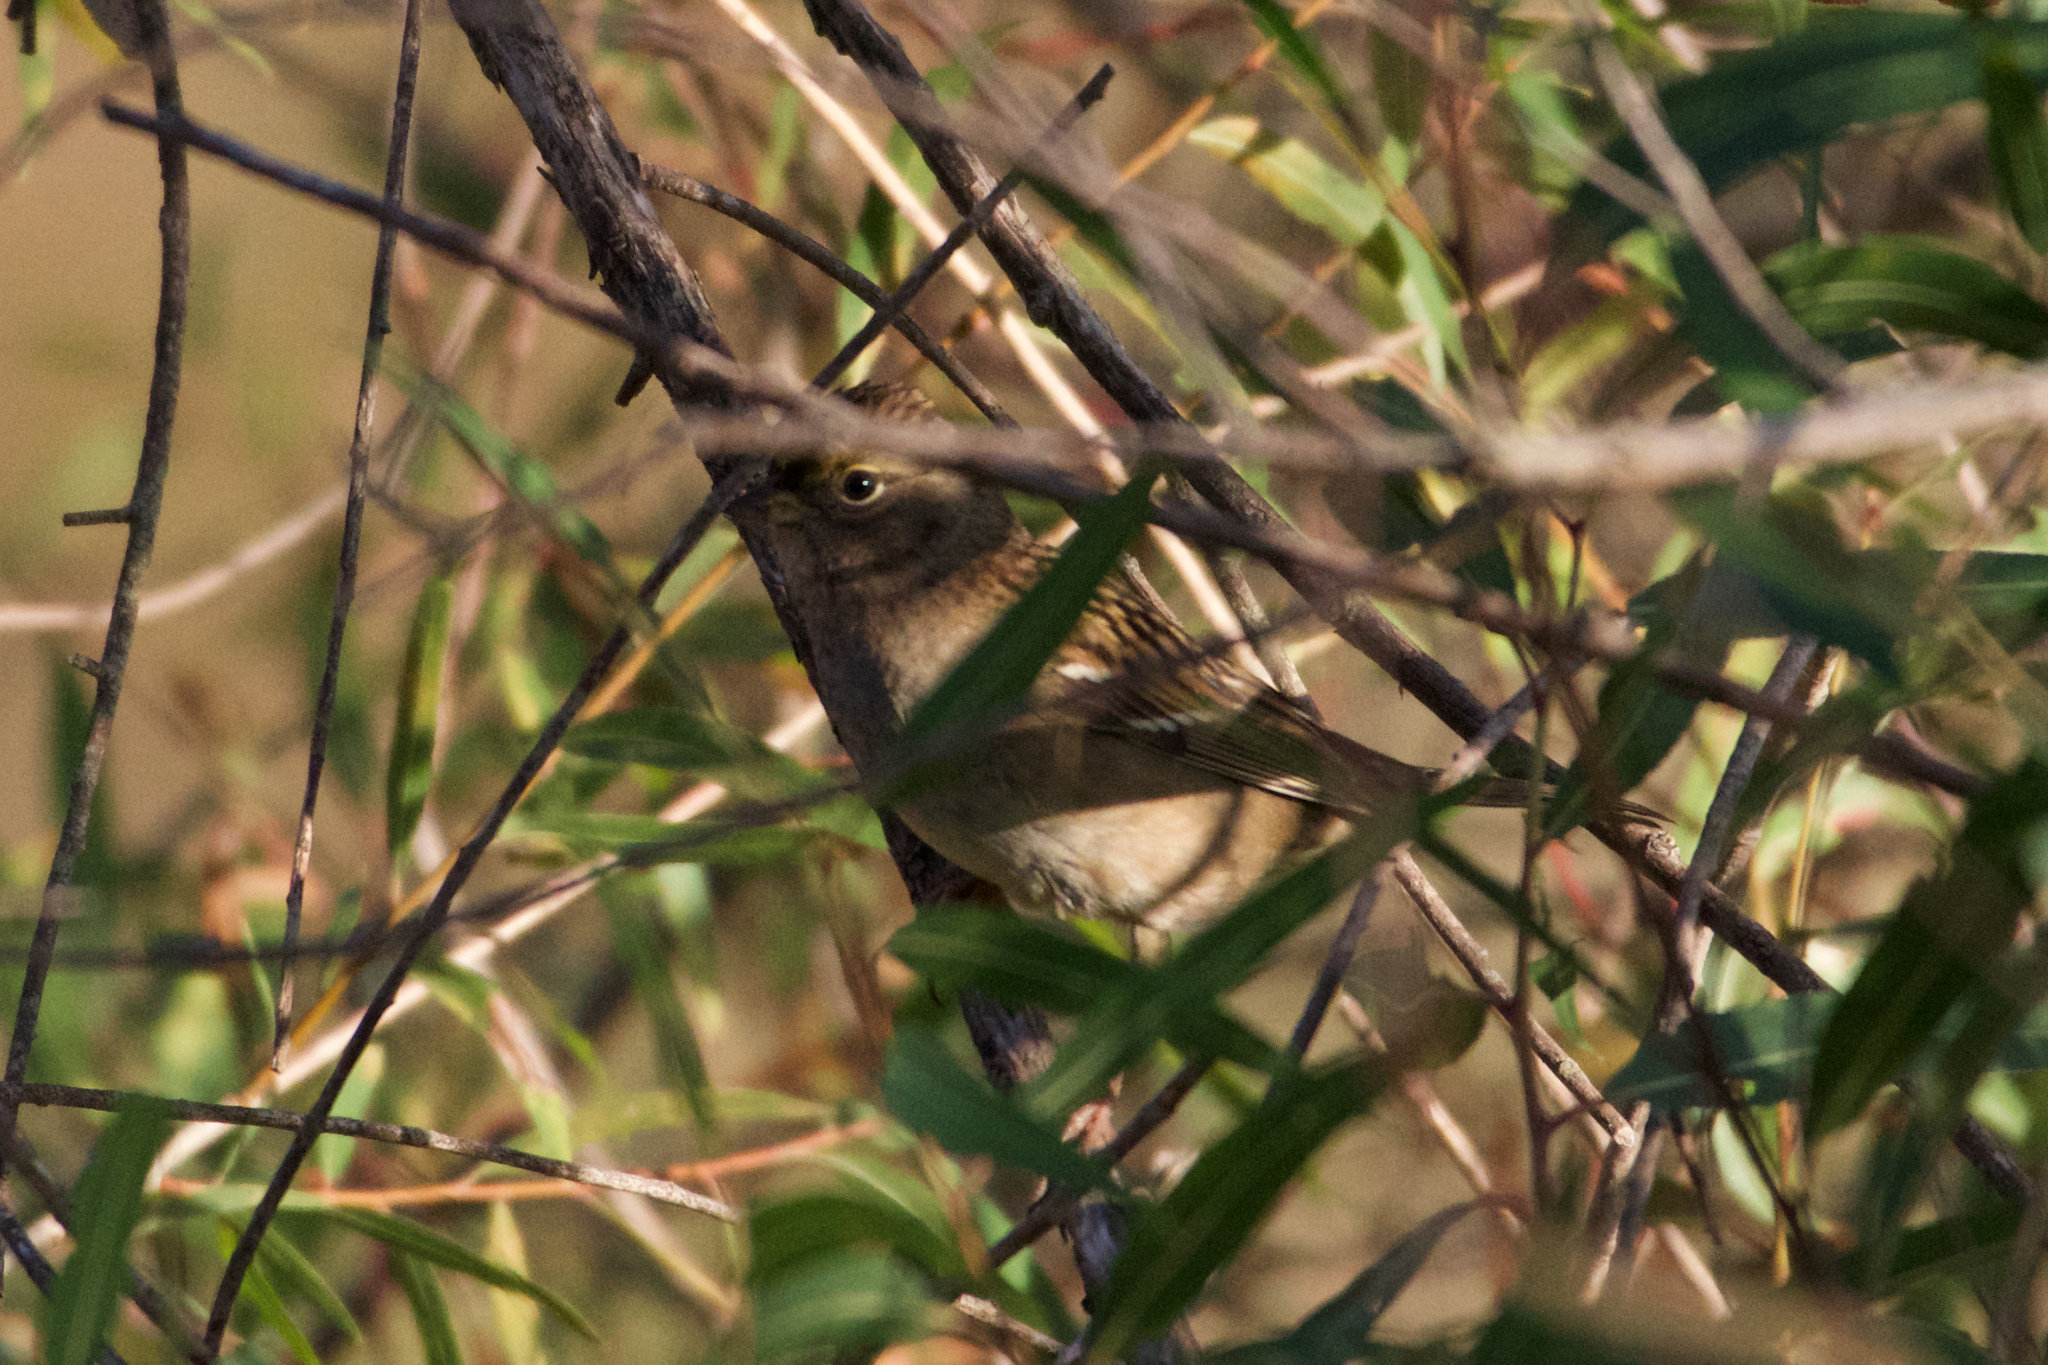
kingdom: Animalia
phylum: Chordata
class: Aves
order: Passeriformes
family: Passerellidae
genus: Zonotrichia
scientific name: Zonotrichia atricapilla
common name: Golden-crowned sparrow
